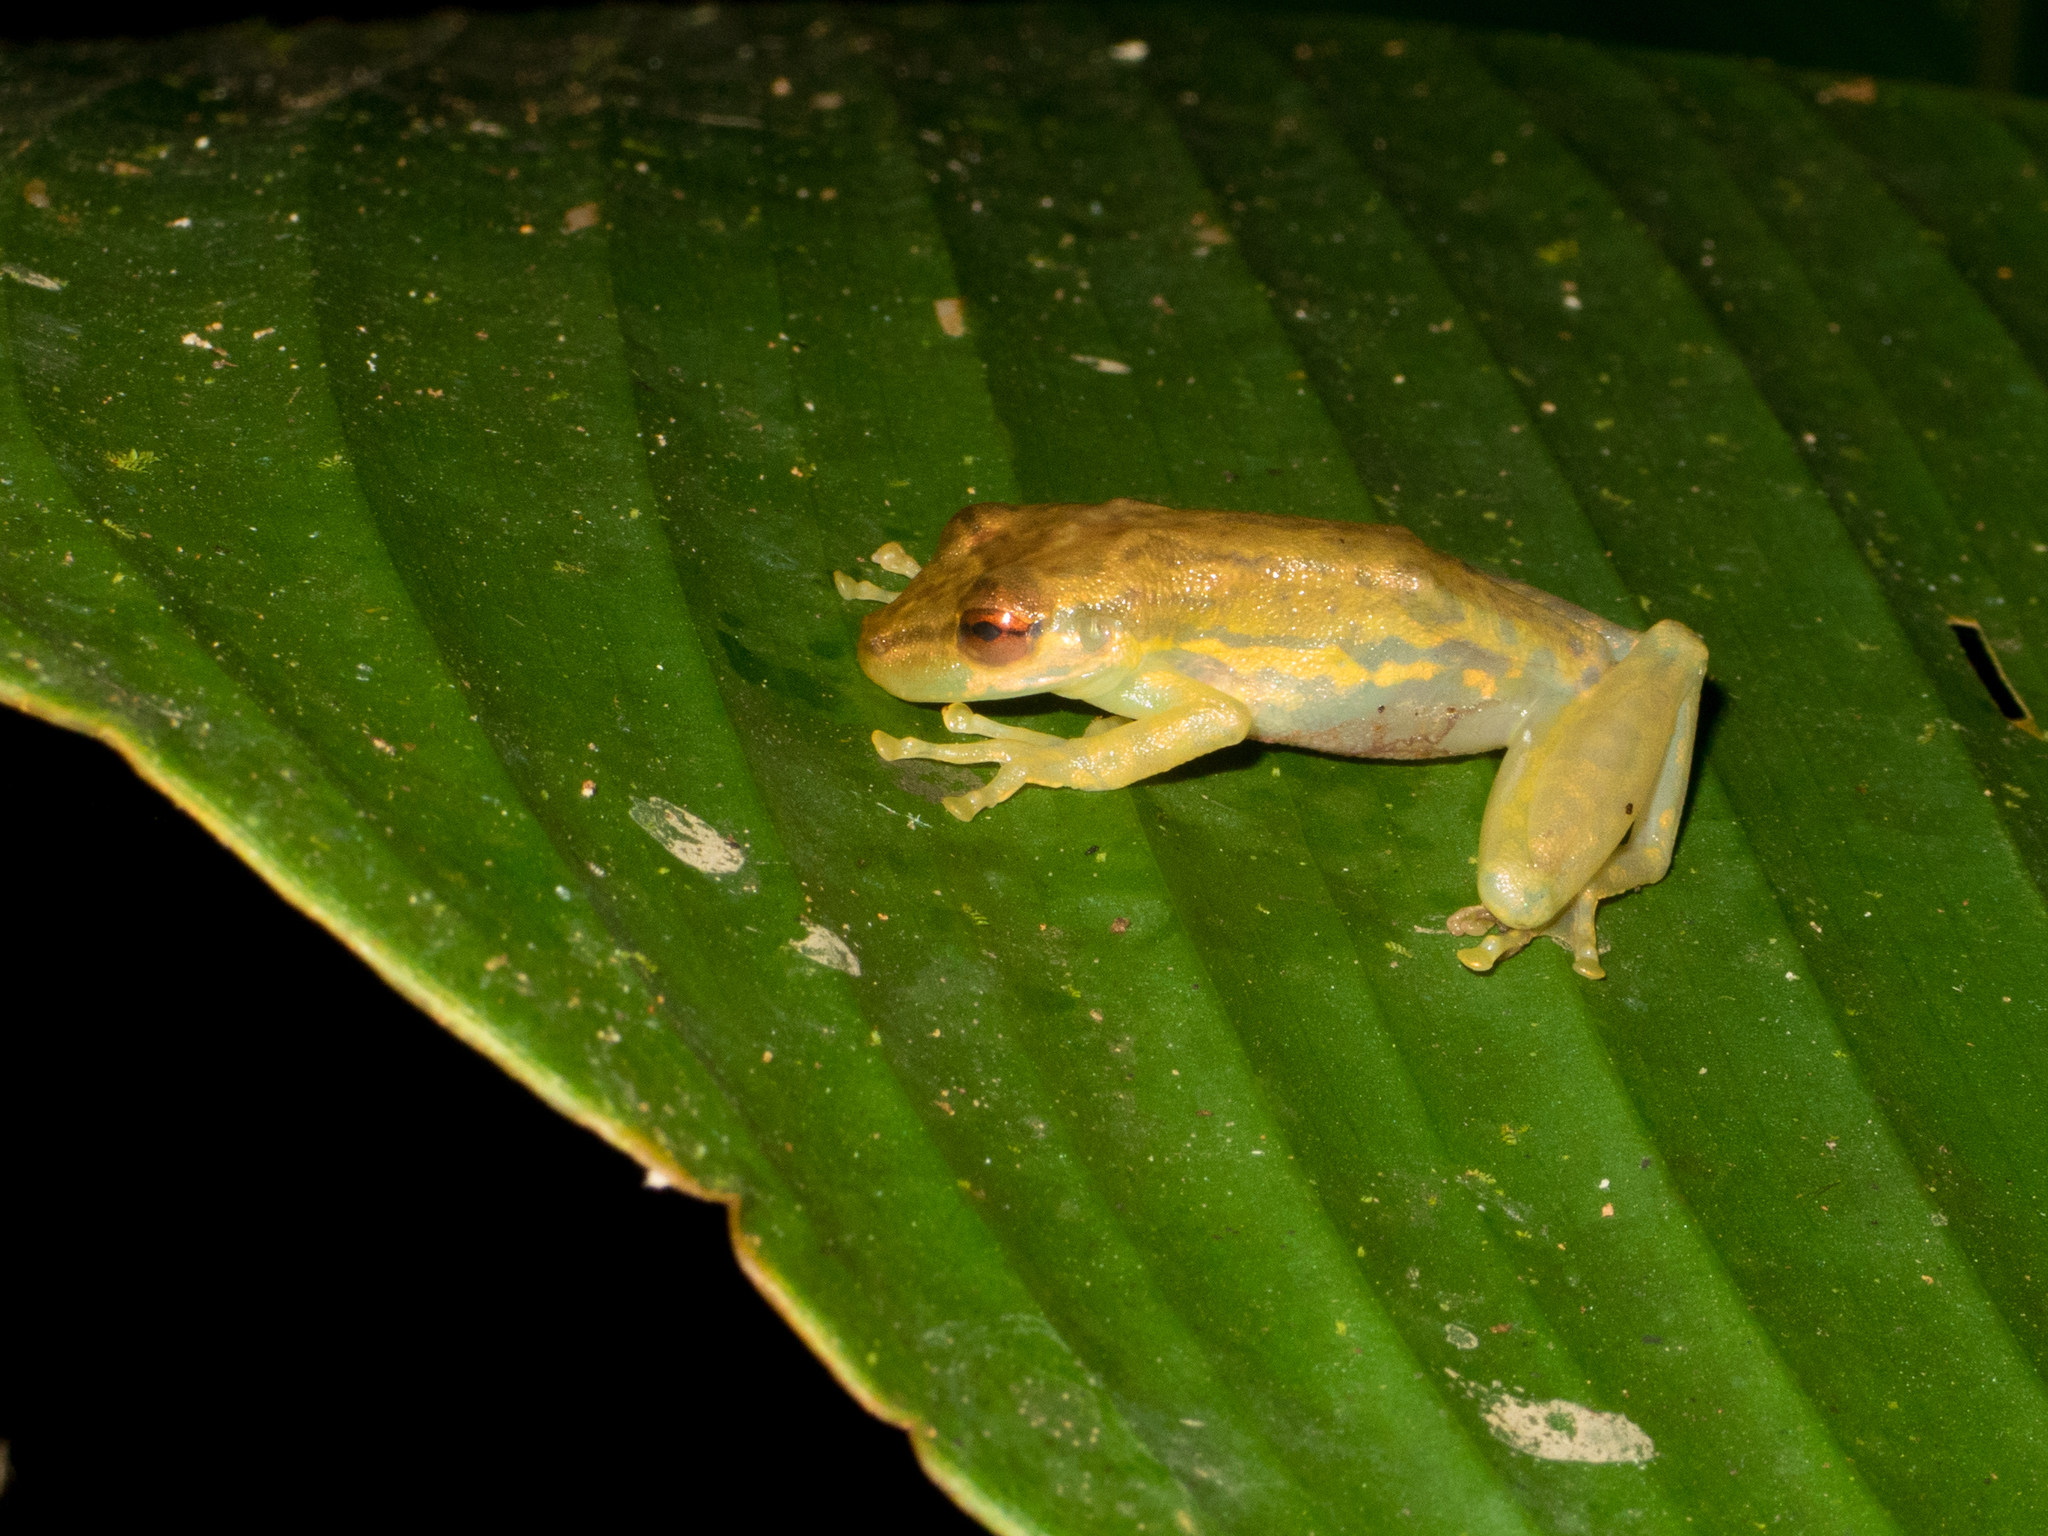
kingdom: Animalia
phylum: Chordata
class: Amphibia
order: Anura
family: Hylidae
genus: Scinax
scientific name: Scinax elaeochroa
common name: Sipurio snouted treefrog
